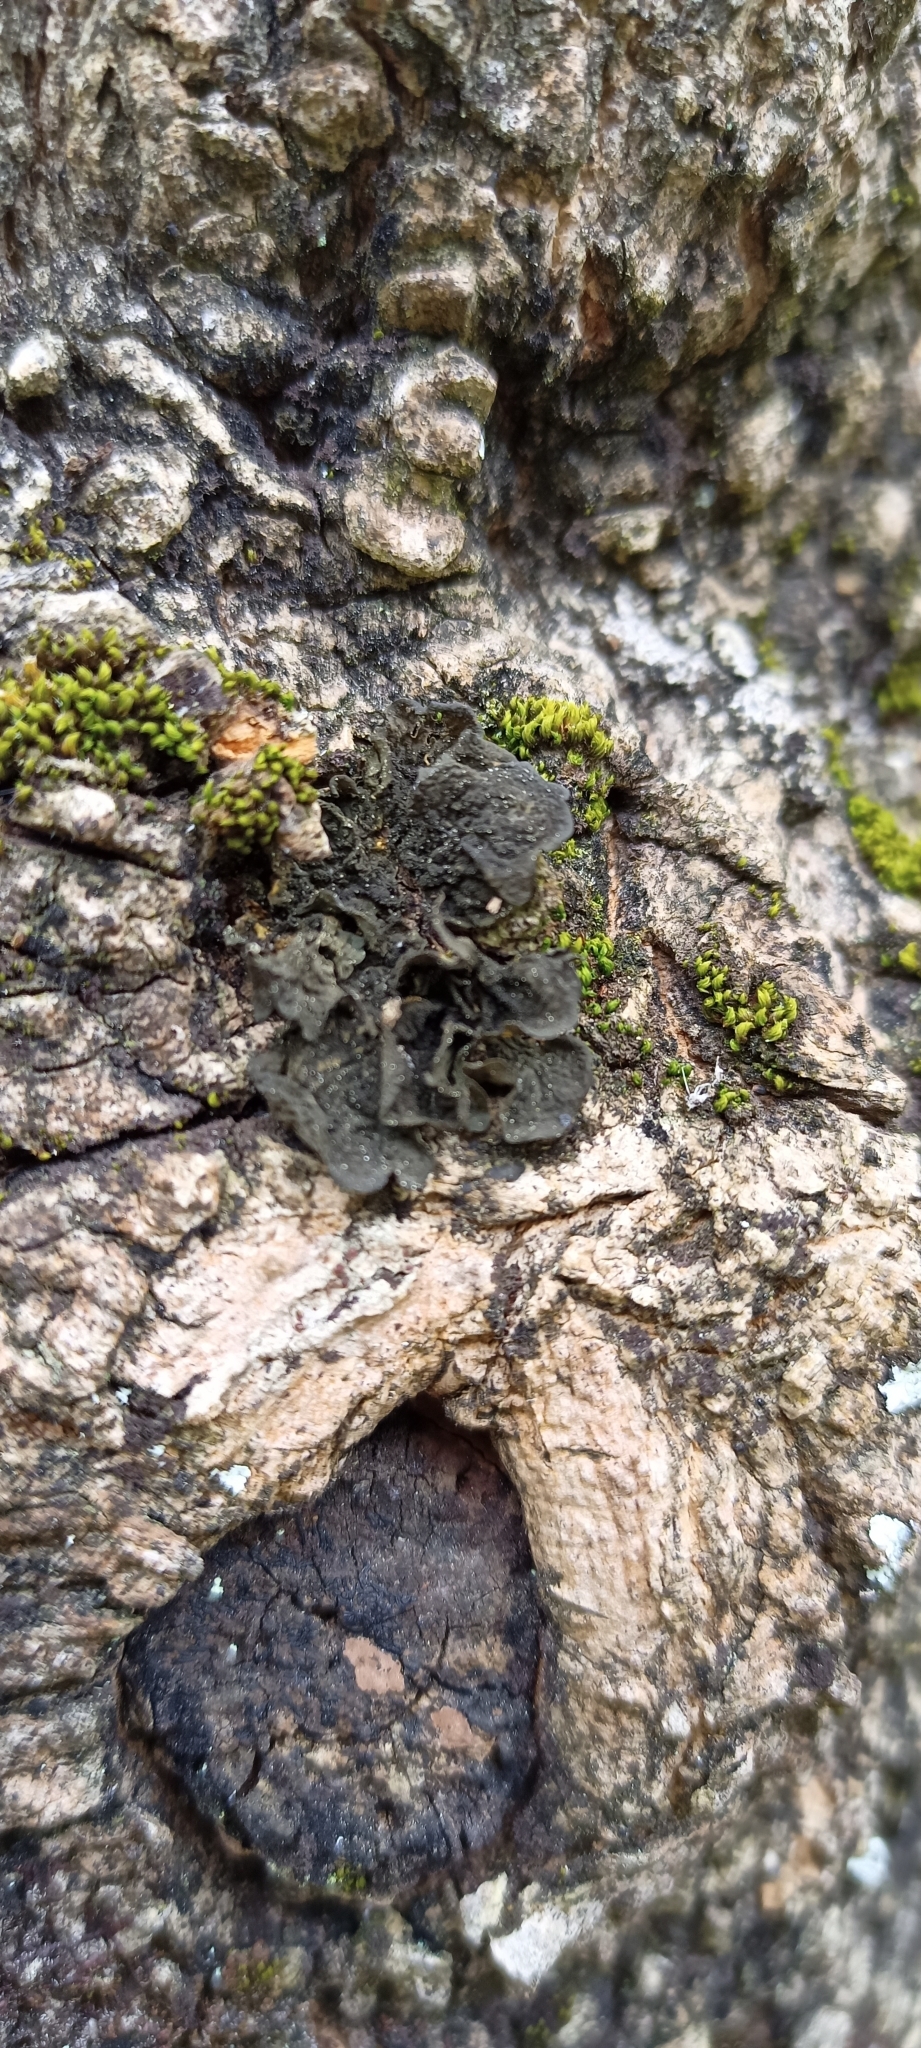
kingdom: Fungi
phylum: Ascomycota
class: Lecanoromycetes
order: Peltigerales
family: Collemataceae
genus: Collema
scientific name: Collema furfuraceum
